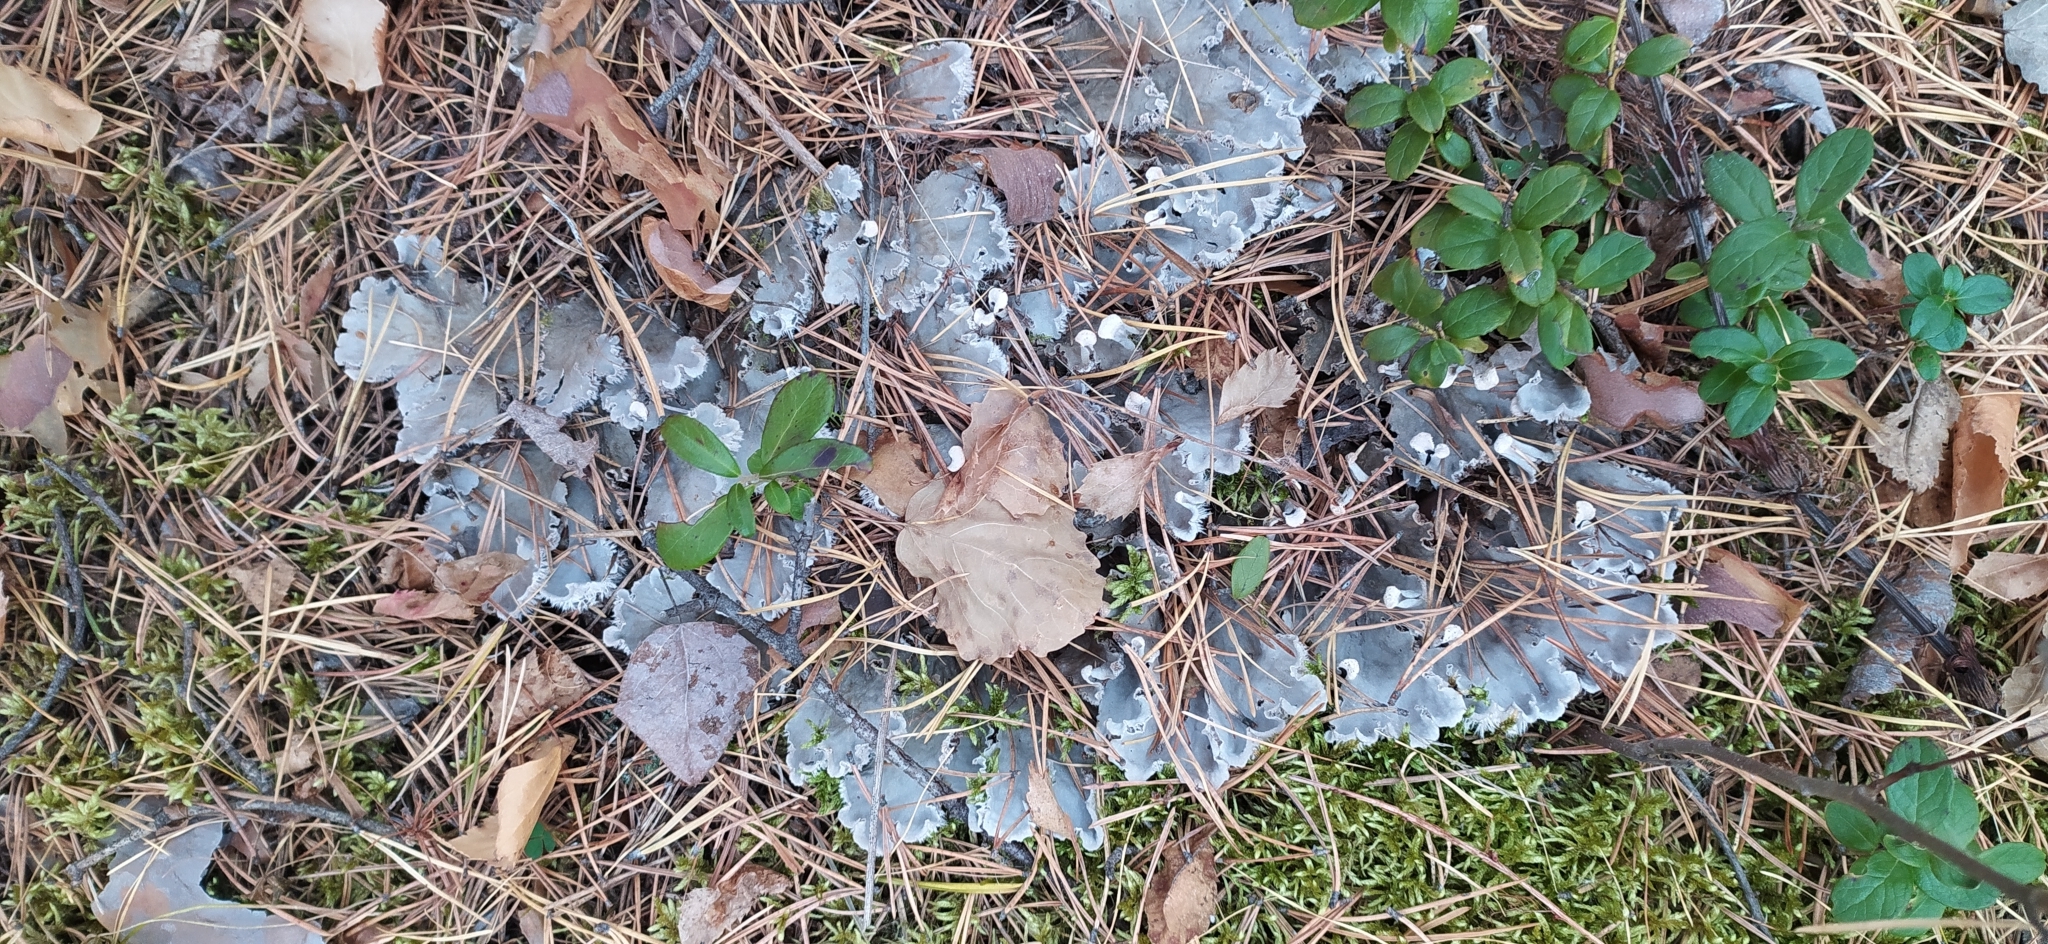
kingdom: Fungi
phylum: Ascomycota
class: Lecanoromycetes
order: Peltigerales
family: Peltigeraceae
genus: Peltigera
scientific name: Peltigera canina
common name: Dog pelt lichen
